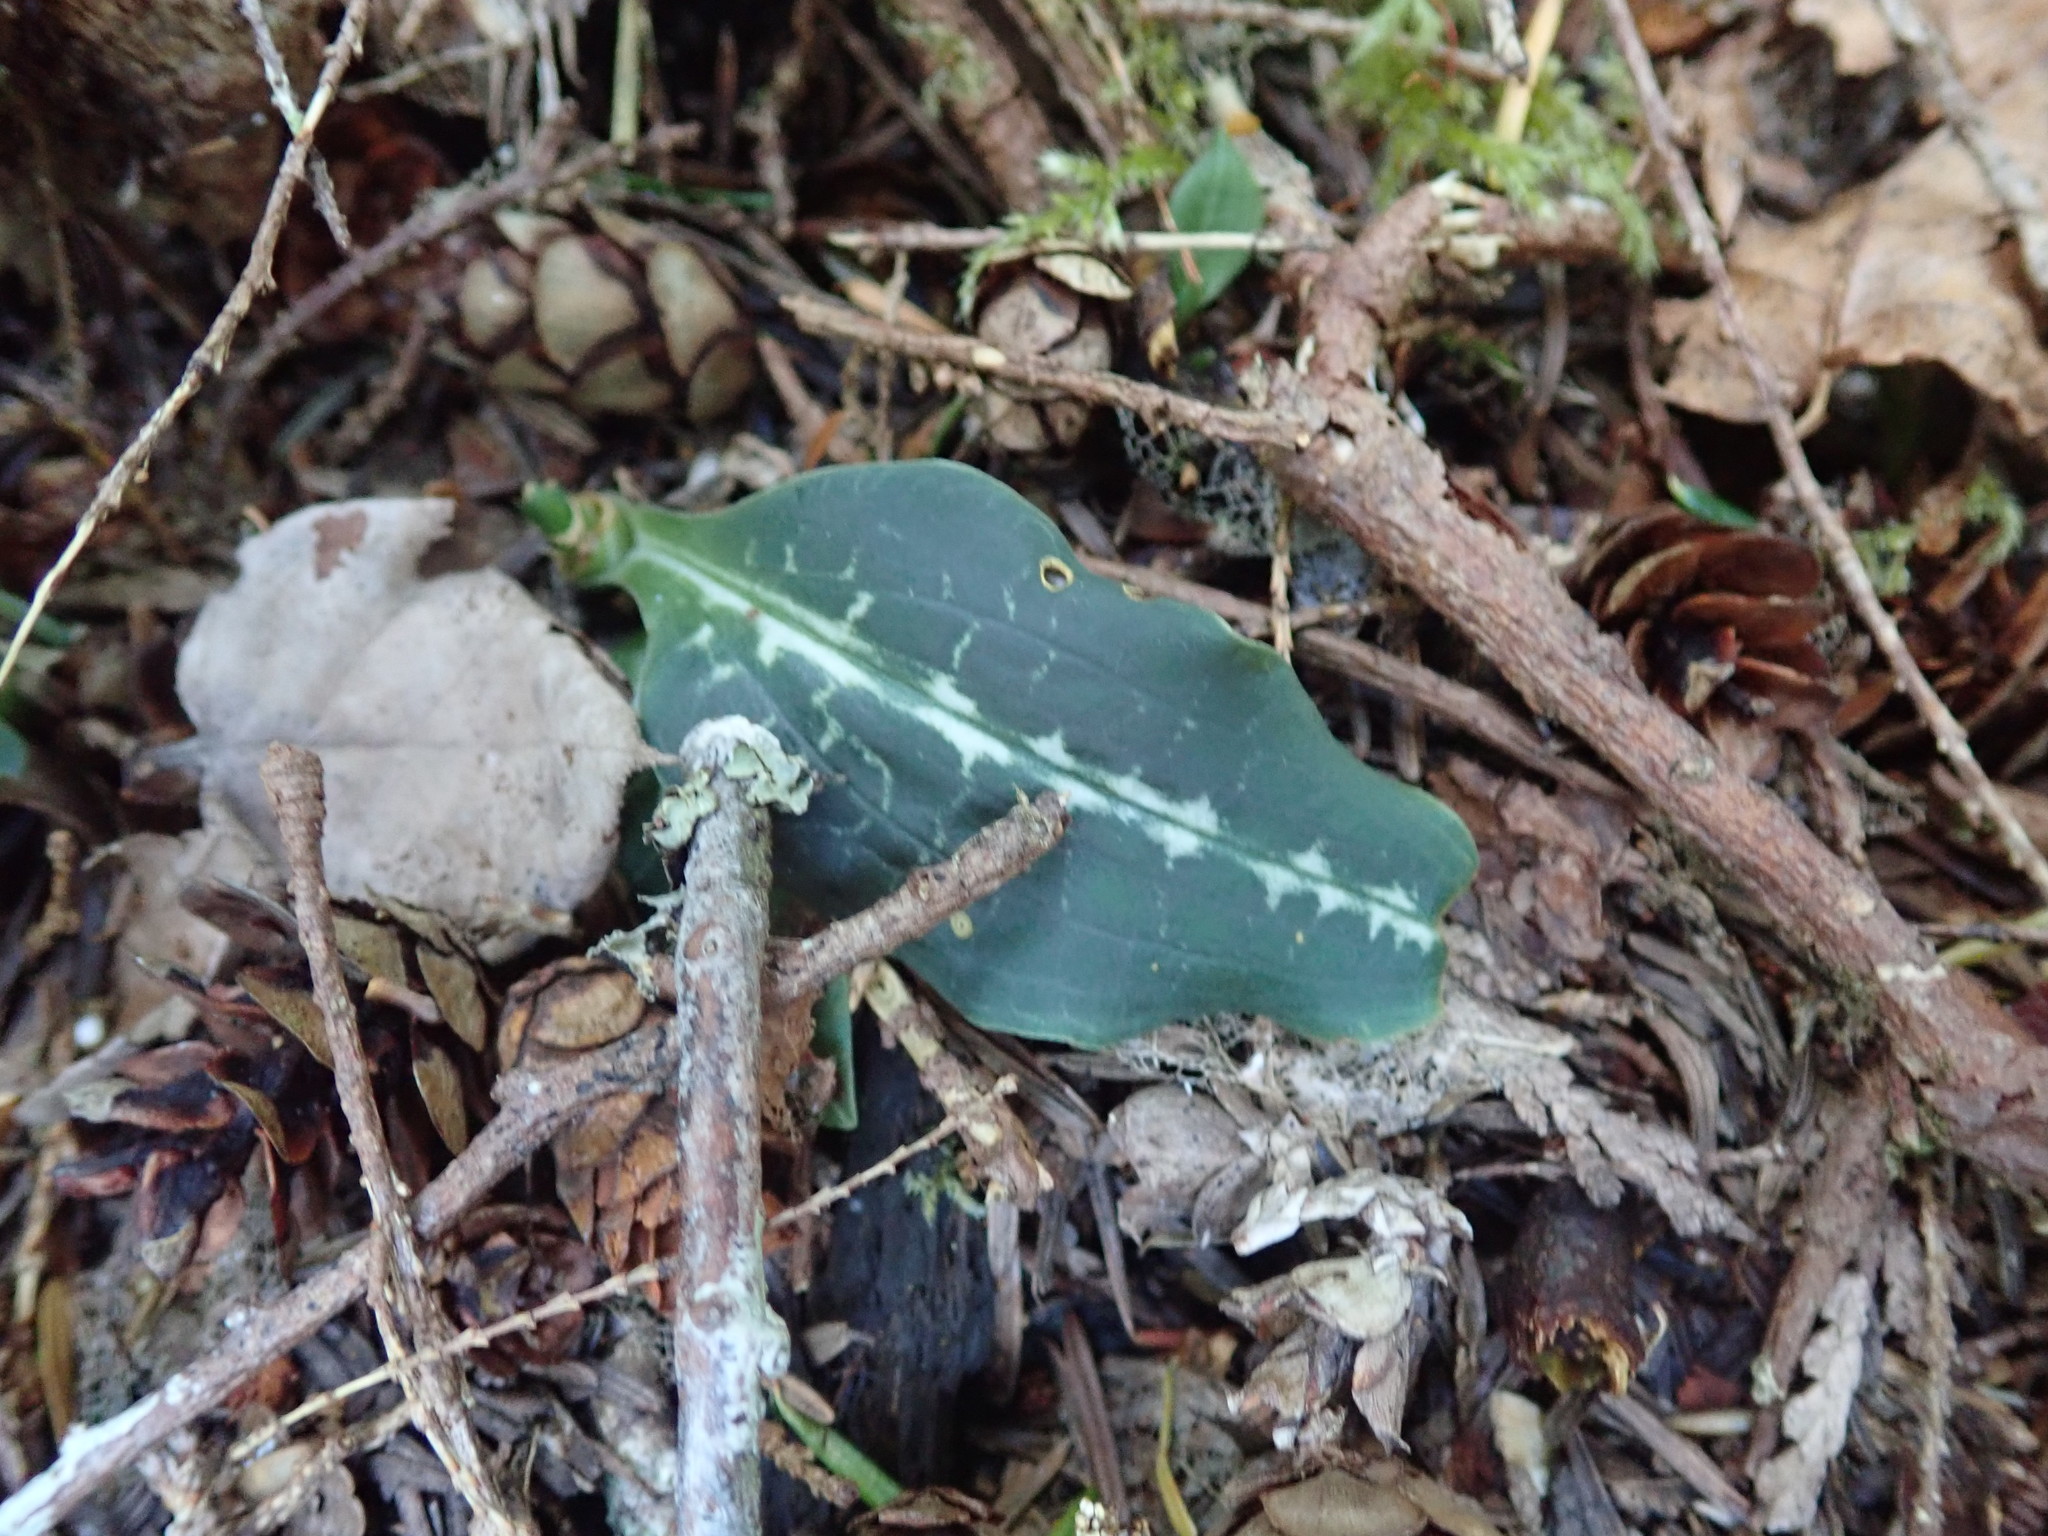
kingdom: Plantae
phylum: Tracheophyta
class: Liliopsida
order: Asparagales
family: Orchidaceae
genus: Goodyera
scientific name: Goodyera oblongifolia
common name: Giant rattlesnake-plantain
